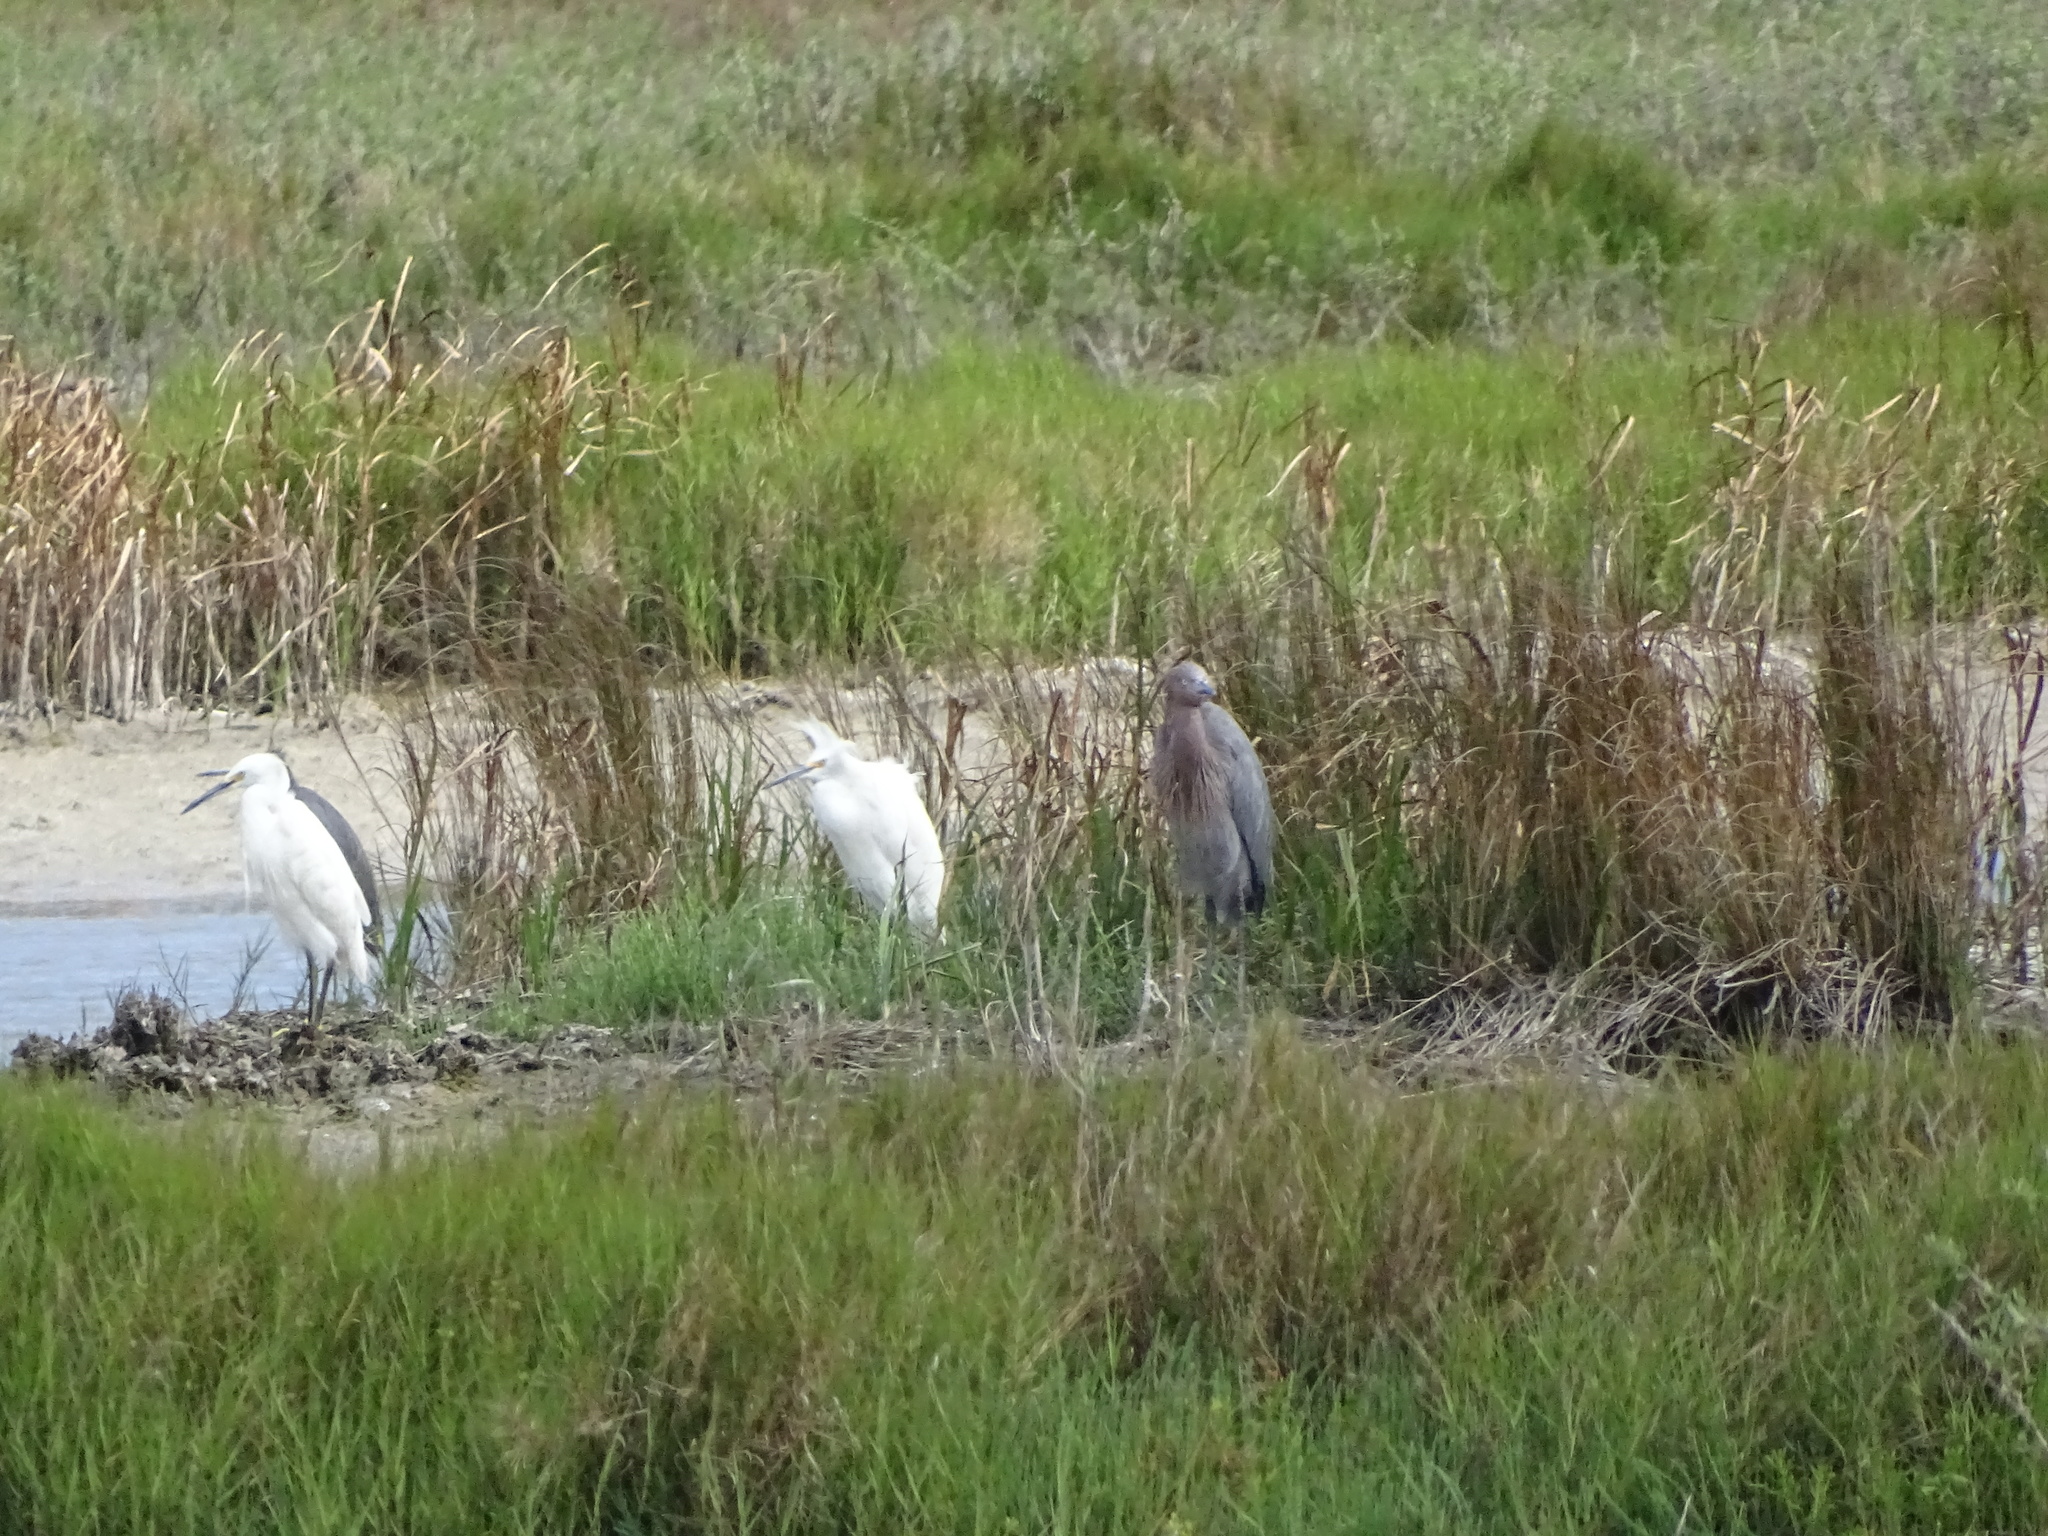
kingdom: Animalia
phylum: Chordata
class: Aves
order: Pelecaniformes
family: Ardeidae
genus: Egretta
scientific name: Egretta thula
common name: Snowy egret
